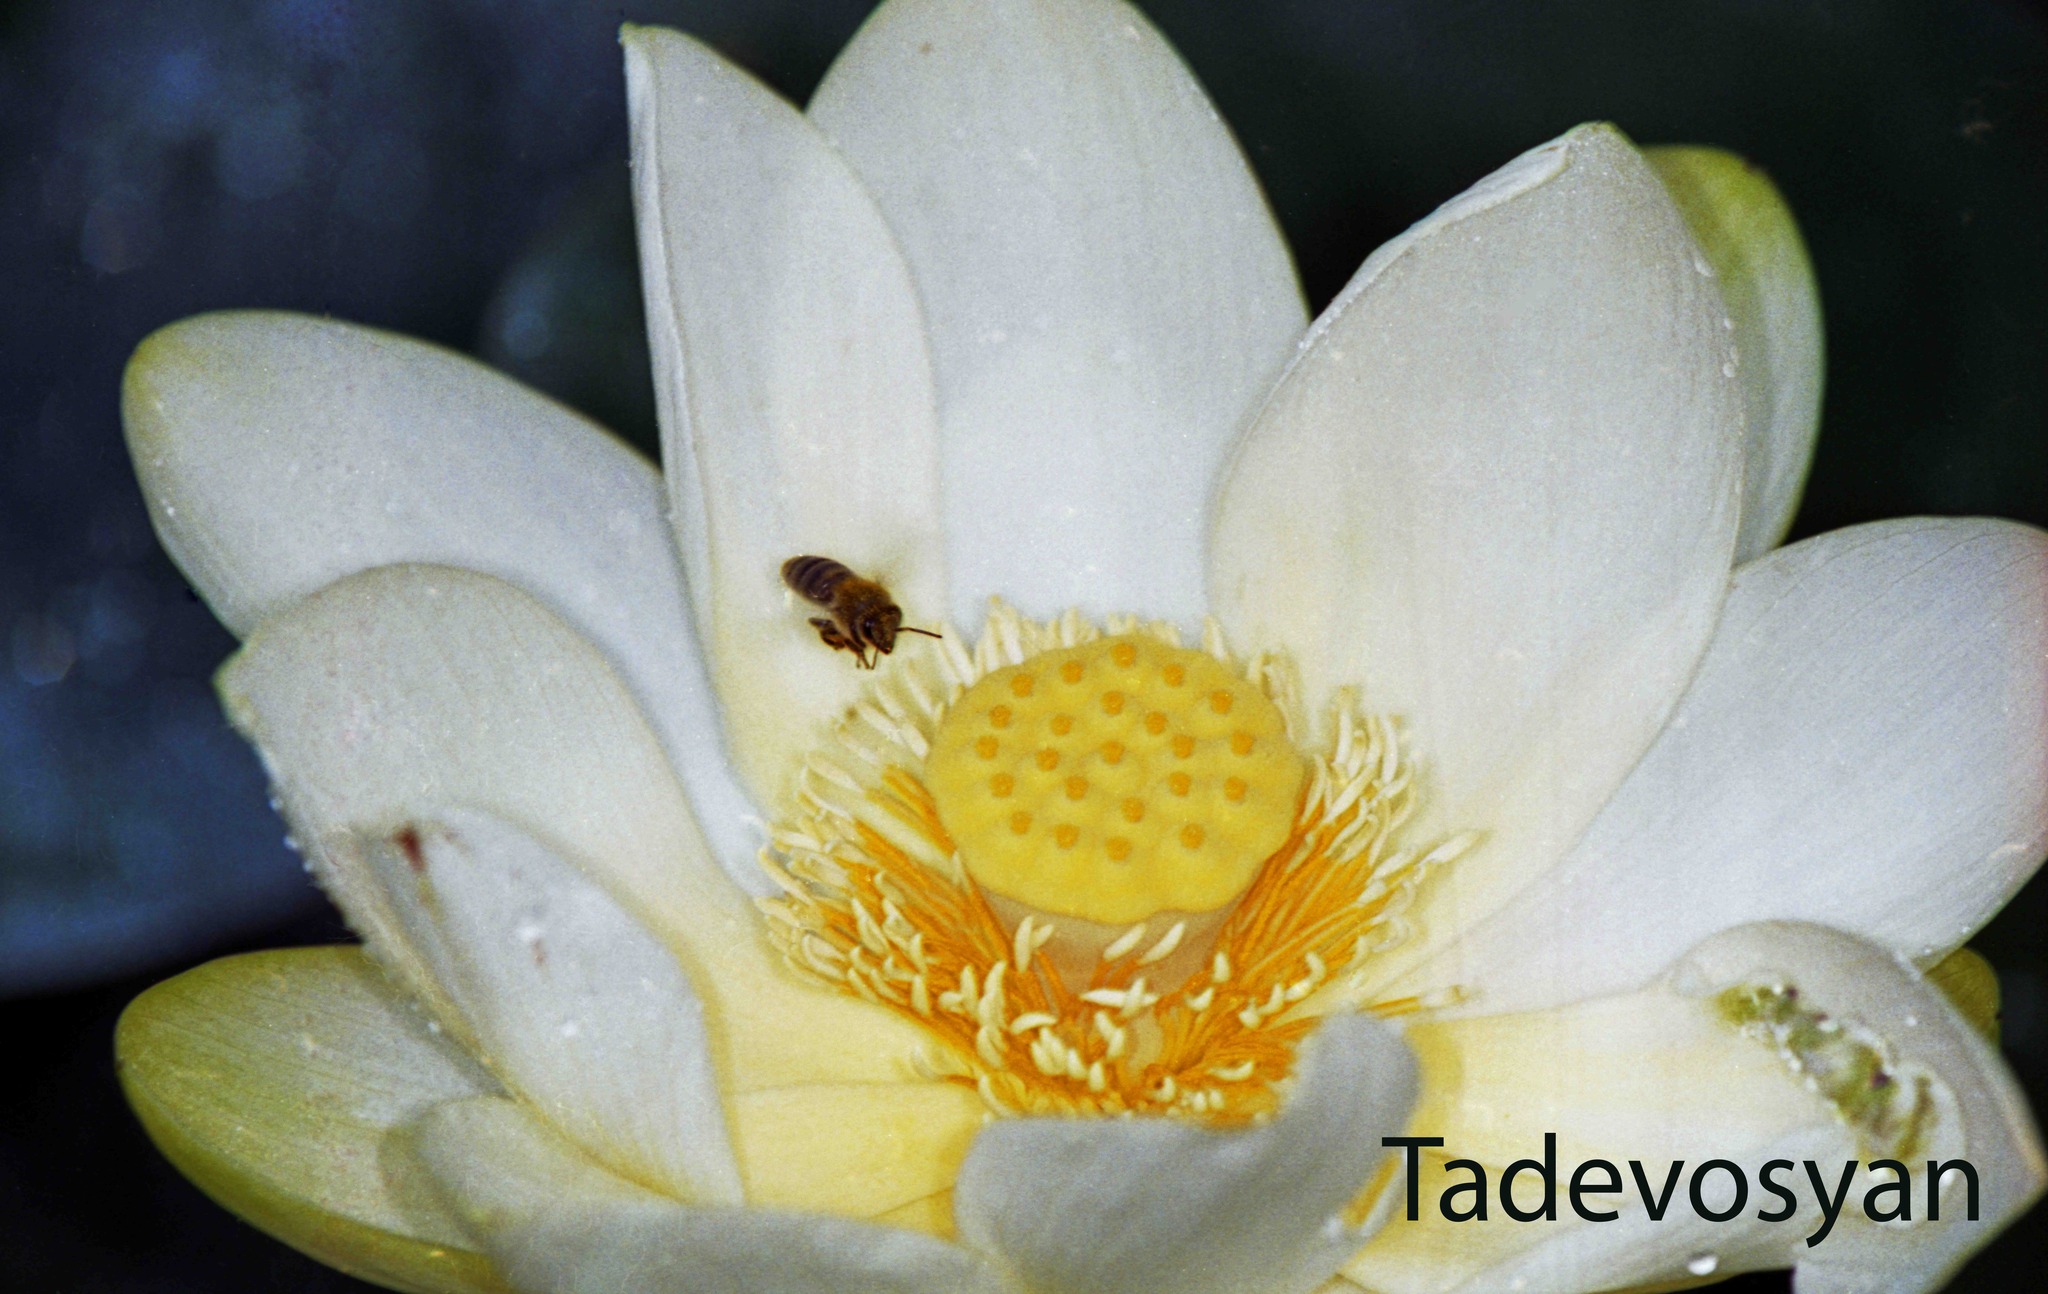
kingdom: Plantae
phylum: Tracheophyta
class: Magnoliopsida
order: Proteales
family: Nelumbonaceae
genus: Nelumbo
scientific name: Nelumbo lutea
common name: American lotus
